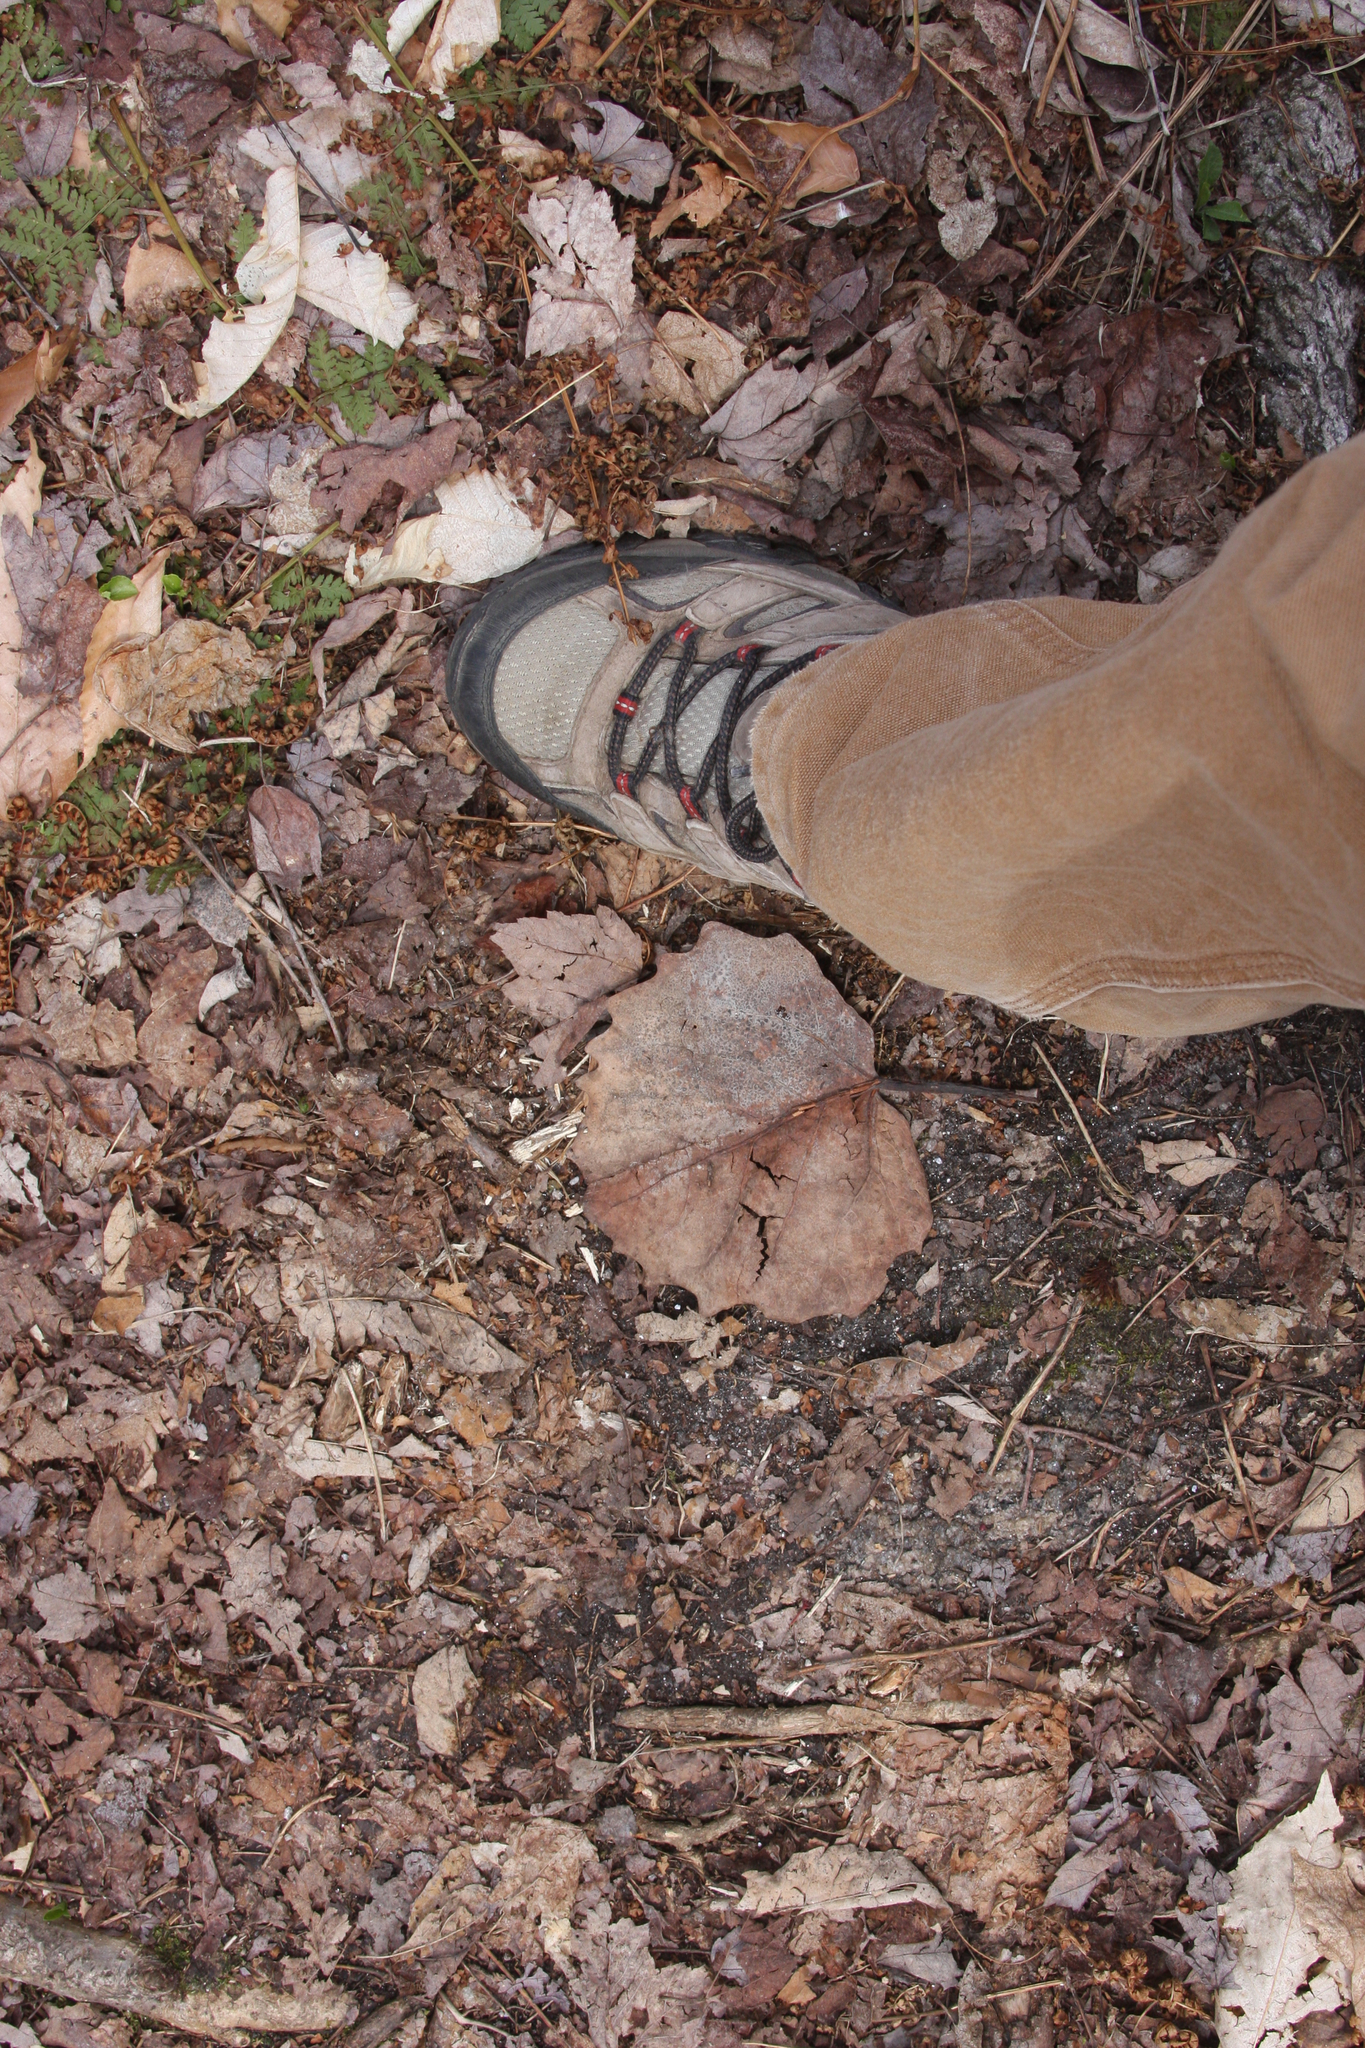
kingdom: Plantae
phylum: Tracheophyta
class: Magnoliopsida
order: Malpighiales
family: Salicaceae
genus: Populus
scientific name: Populus grandidentata
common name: Bigtooth aspen
